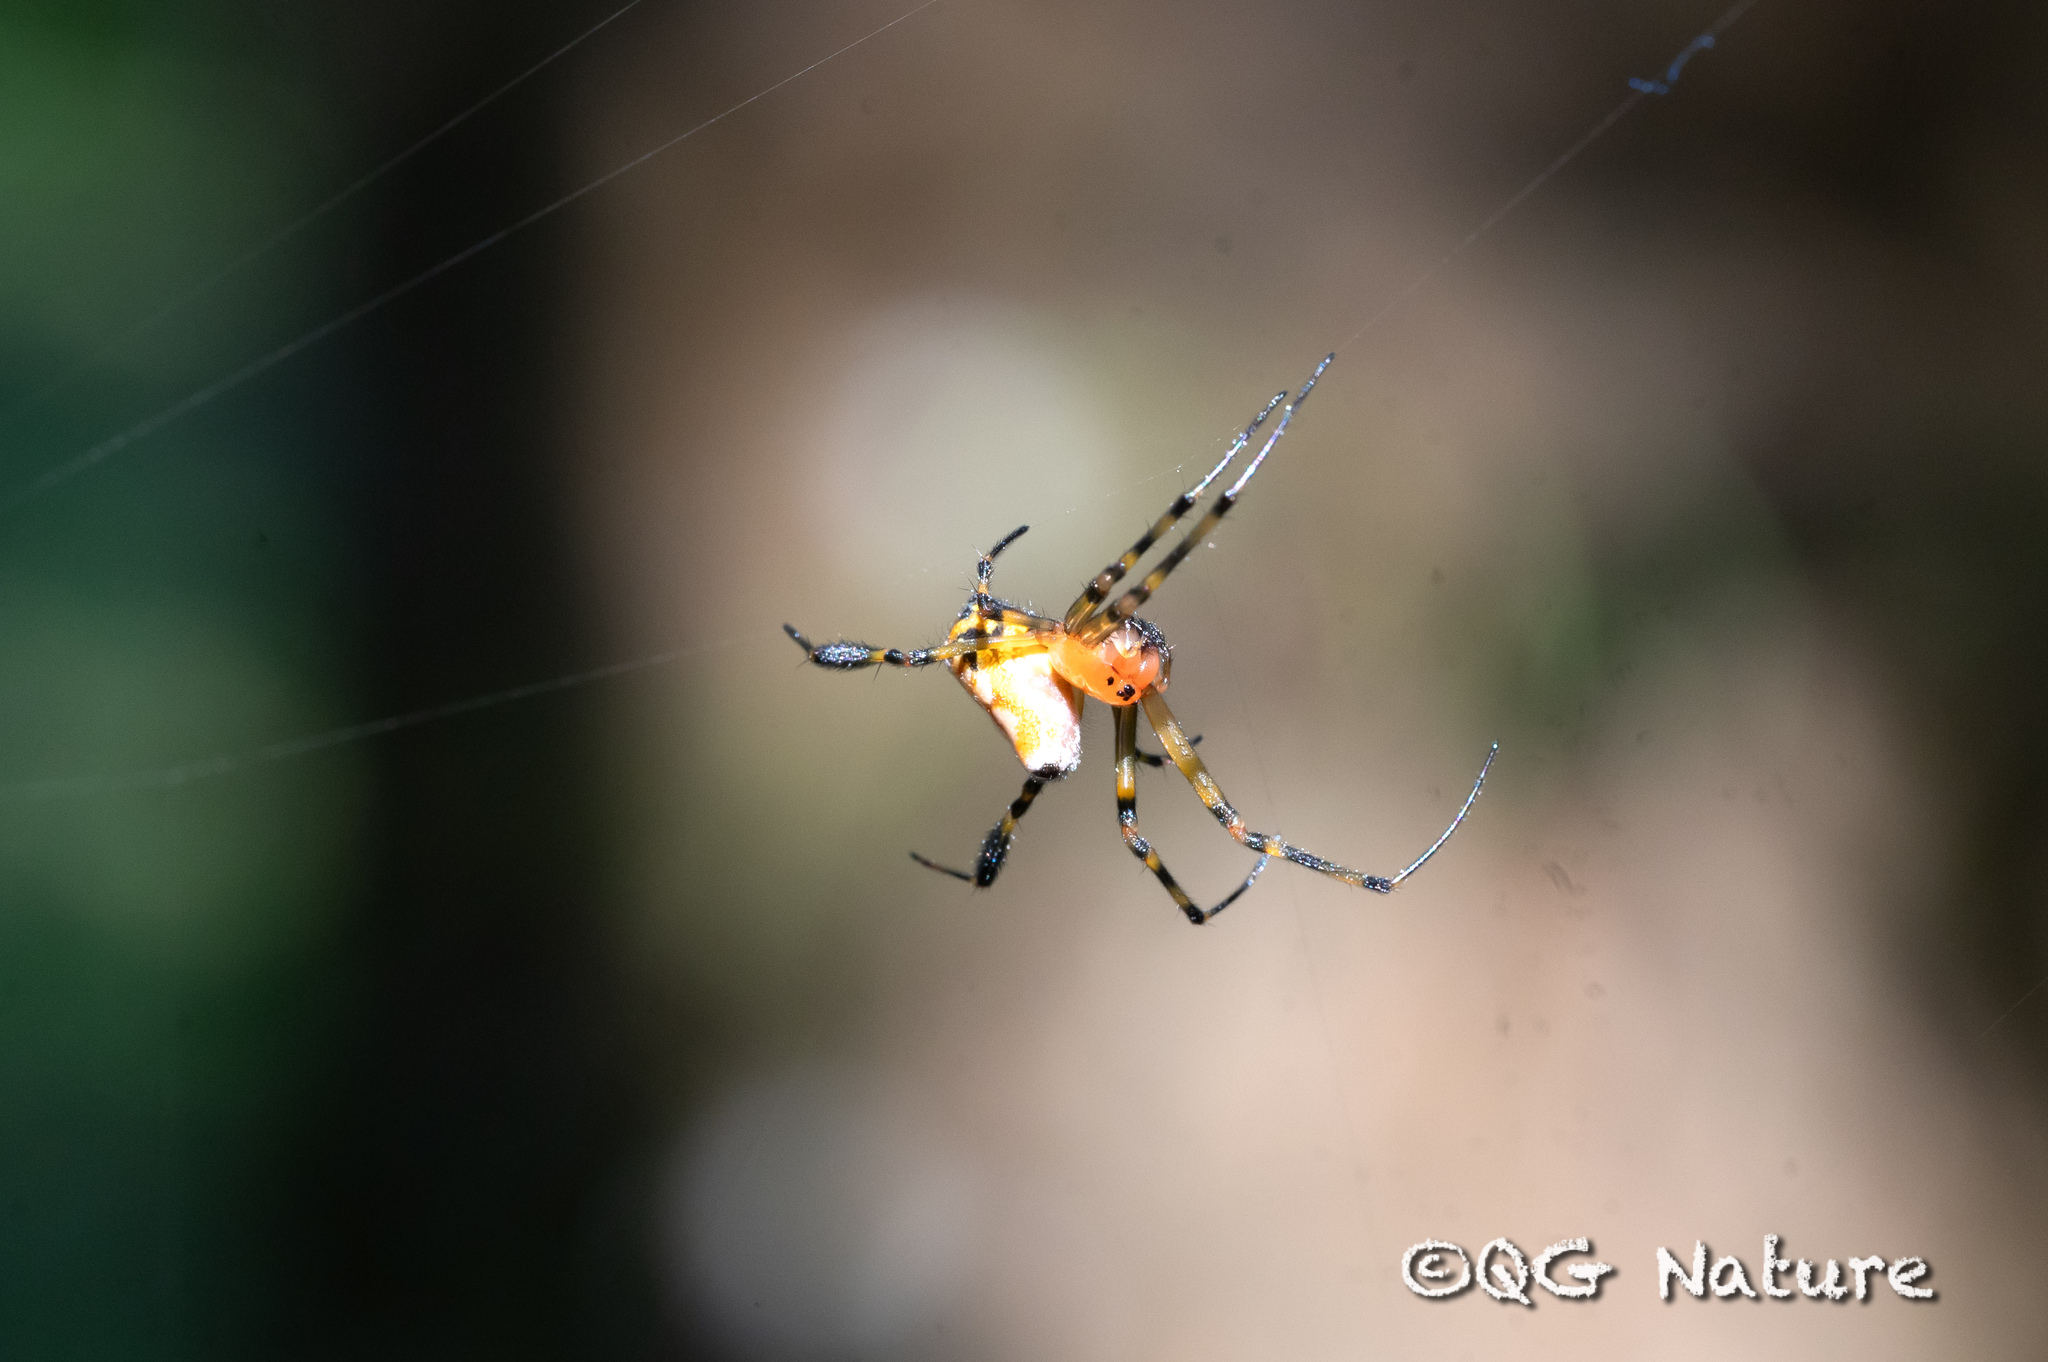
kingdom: Animalia
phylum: Arthropoda
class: Arachnida
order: Araneae
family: Tetragnathidae
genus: Leucauge
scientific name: Leucauge fastigata
